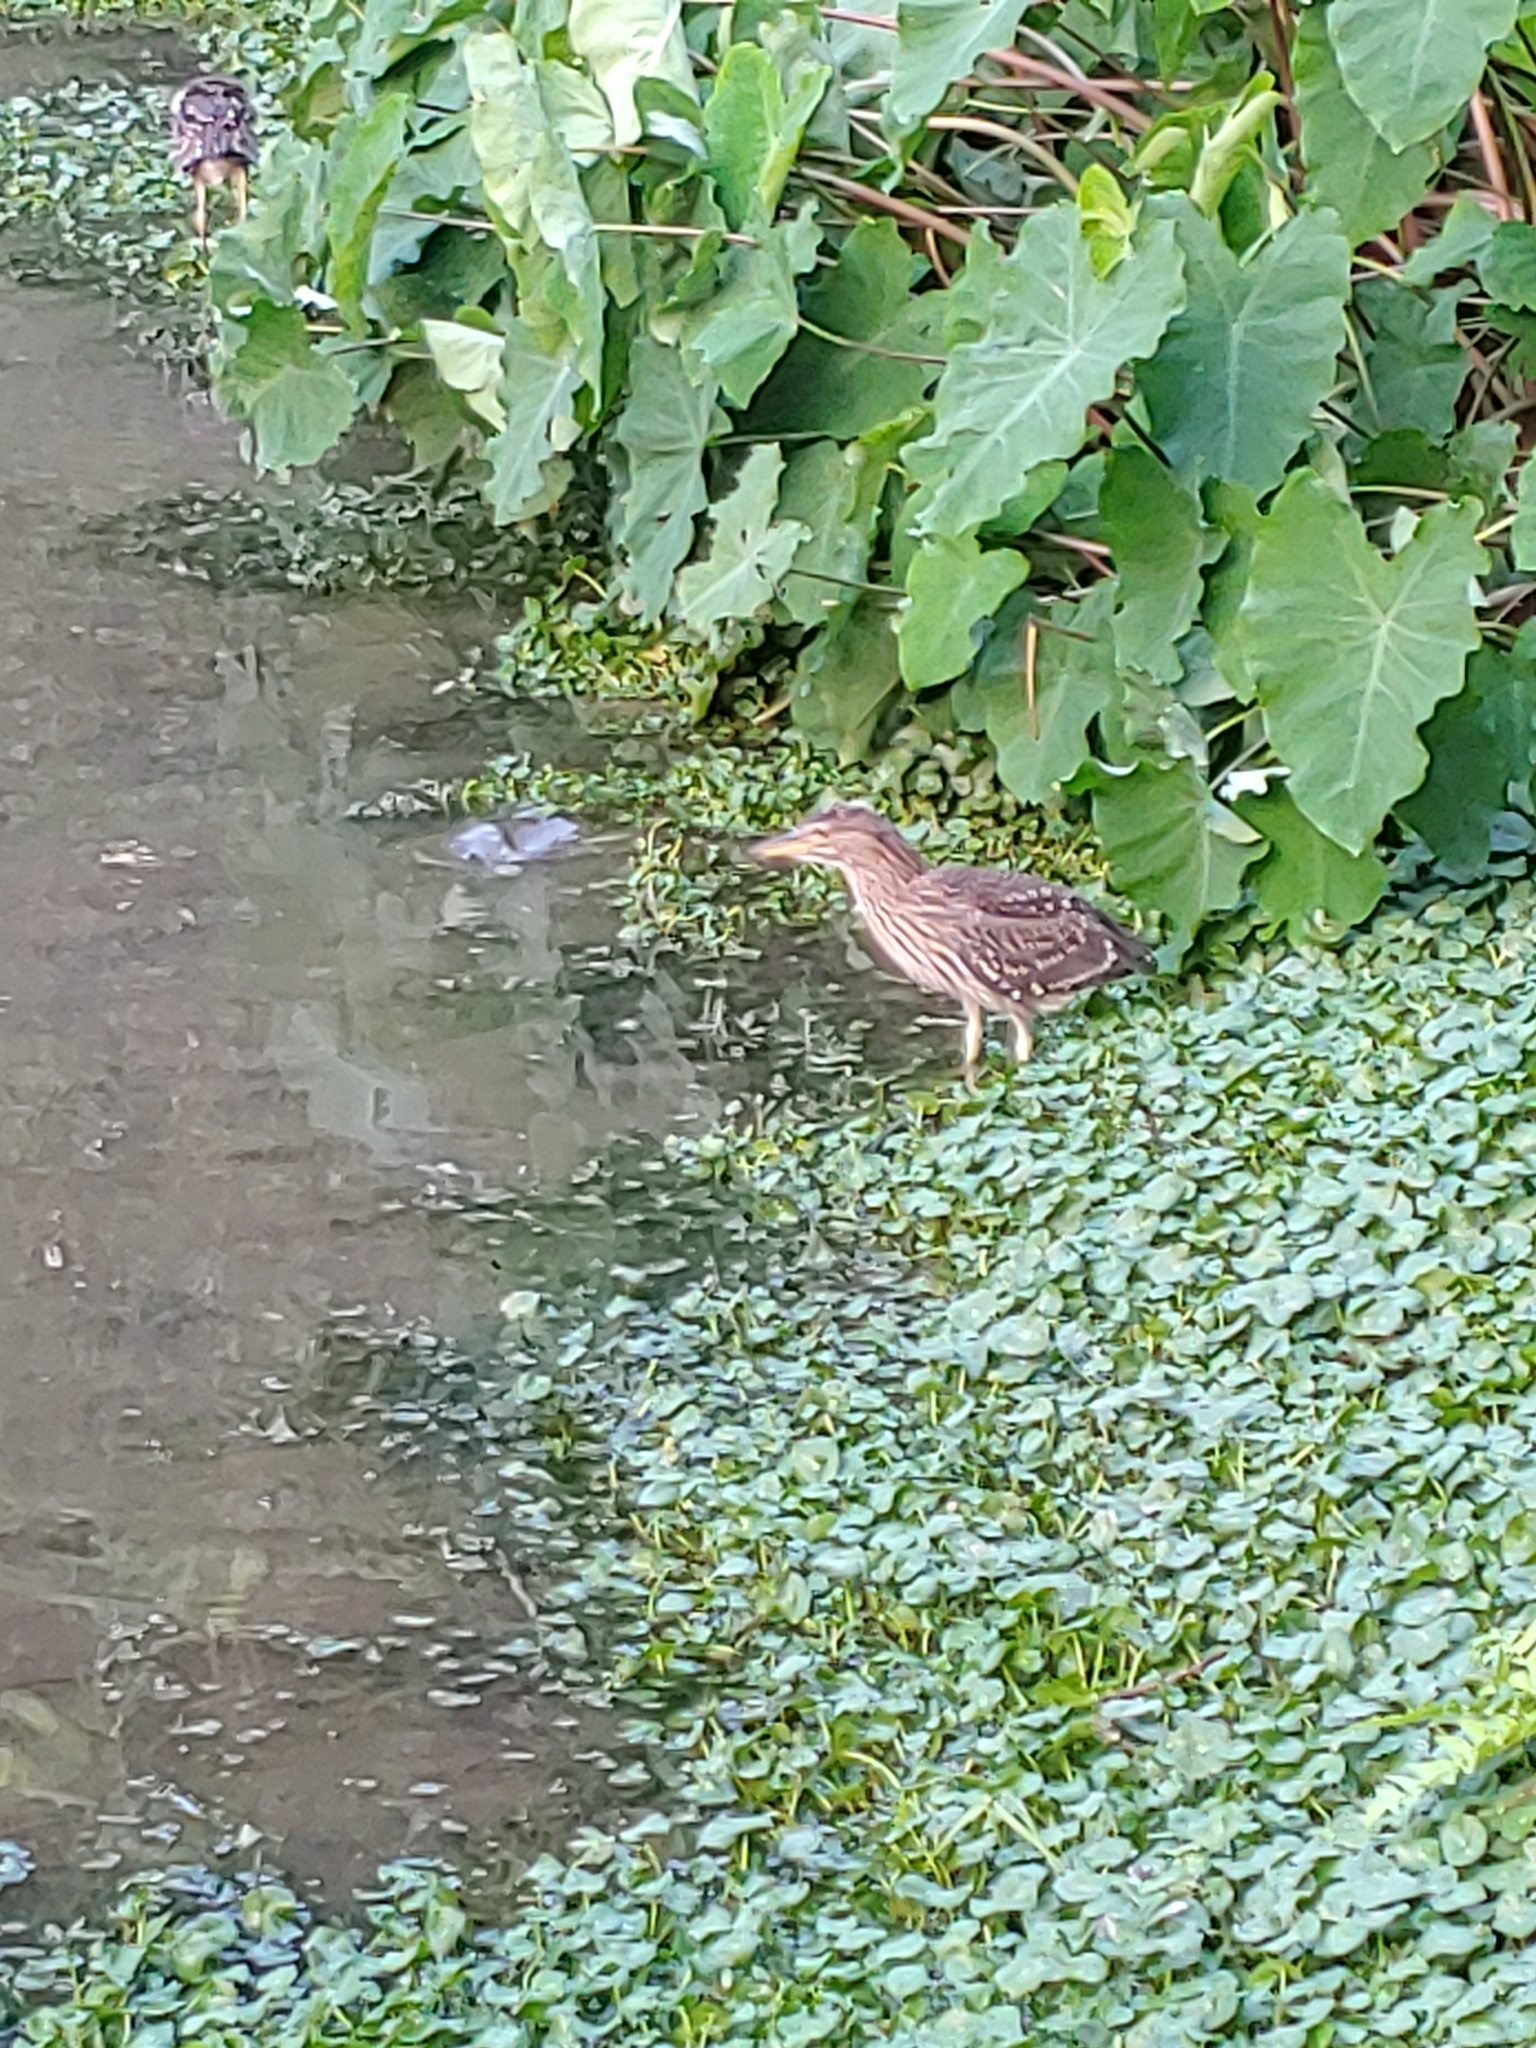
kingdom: Animalia
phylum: Chordata
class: Aves
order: Pelecaniformes
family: Ardeidae
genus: Nycticorax
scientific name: Nycticorax nycticorax
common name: Black-crowned night heron
